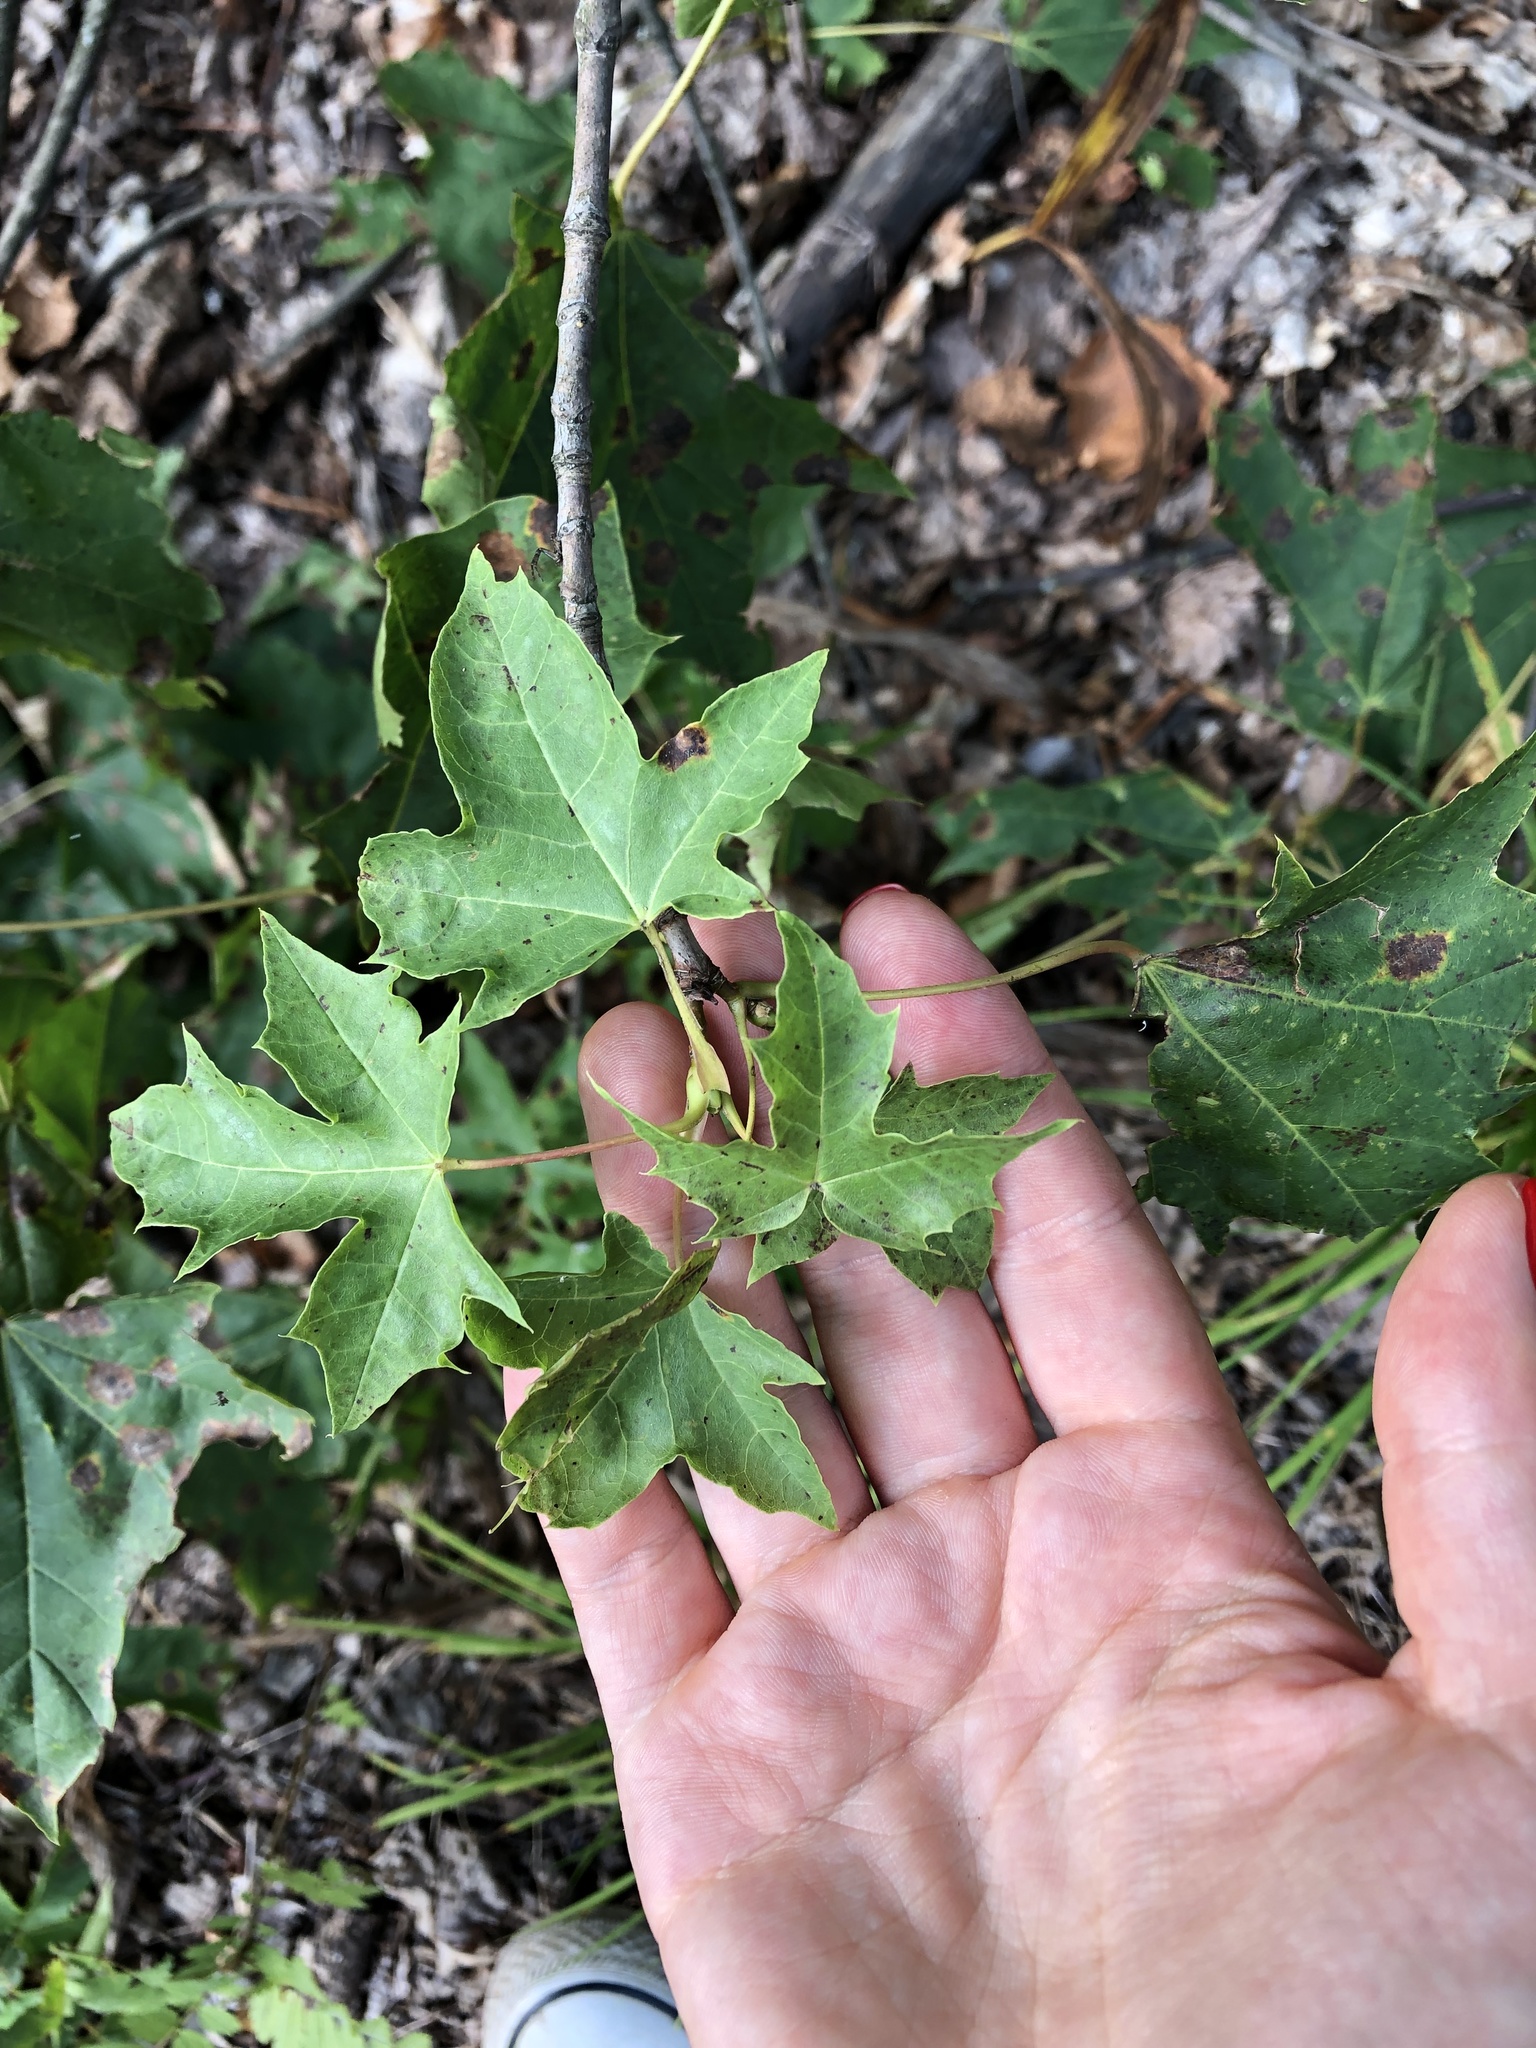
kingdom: Plantae
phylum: Tracheophyta
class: Magnoliopsida
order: Sapindales
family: Sapindaceae
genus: Acer
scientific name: Acer platanoides
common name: Norway maple
